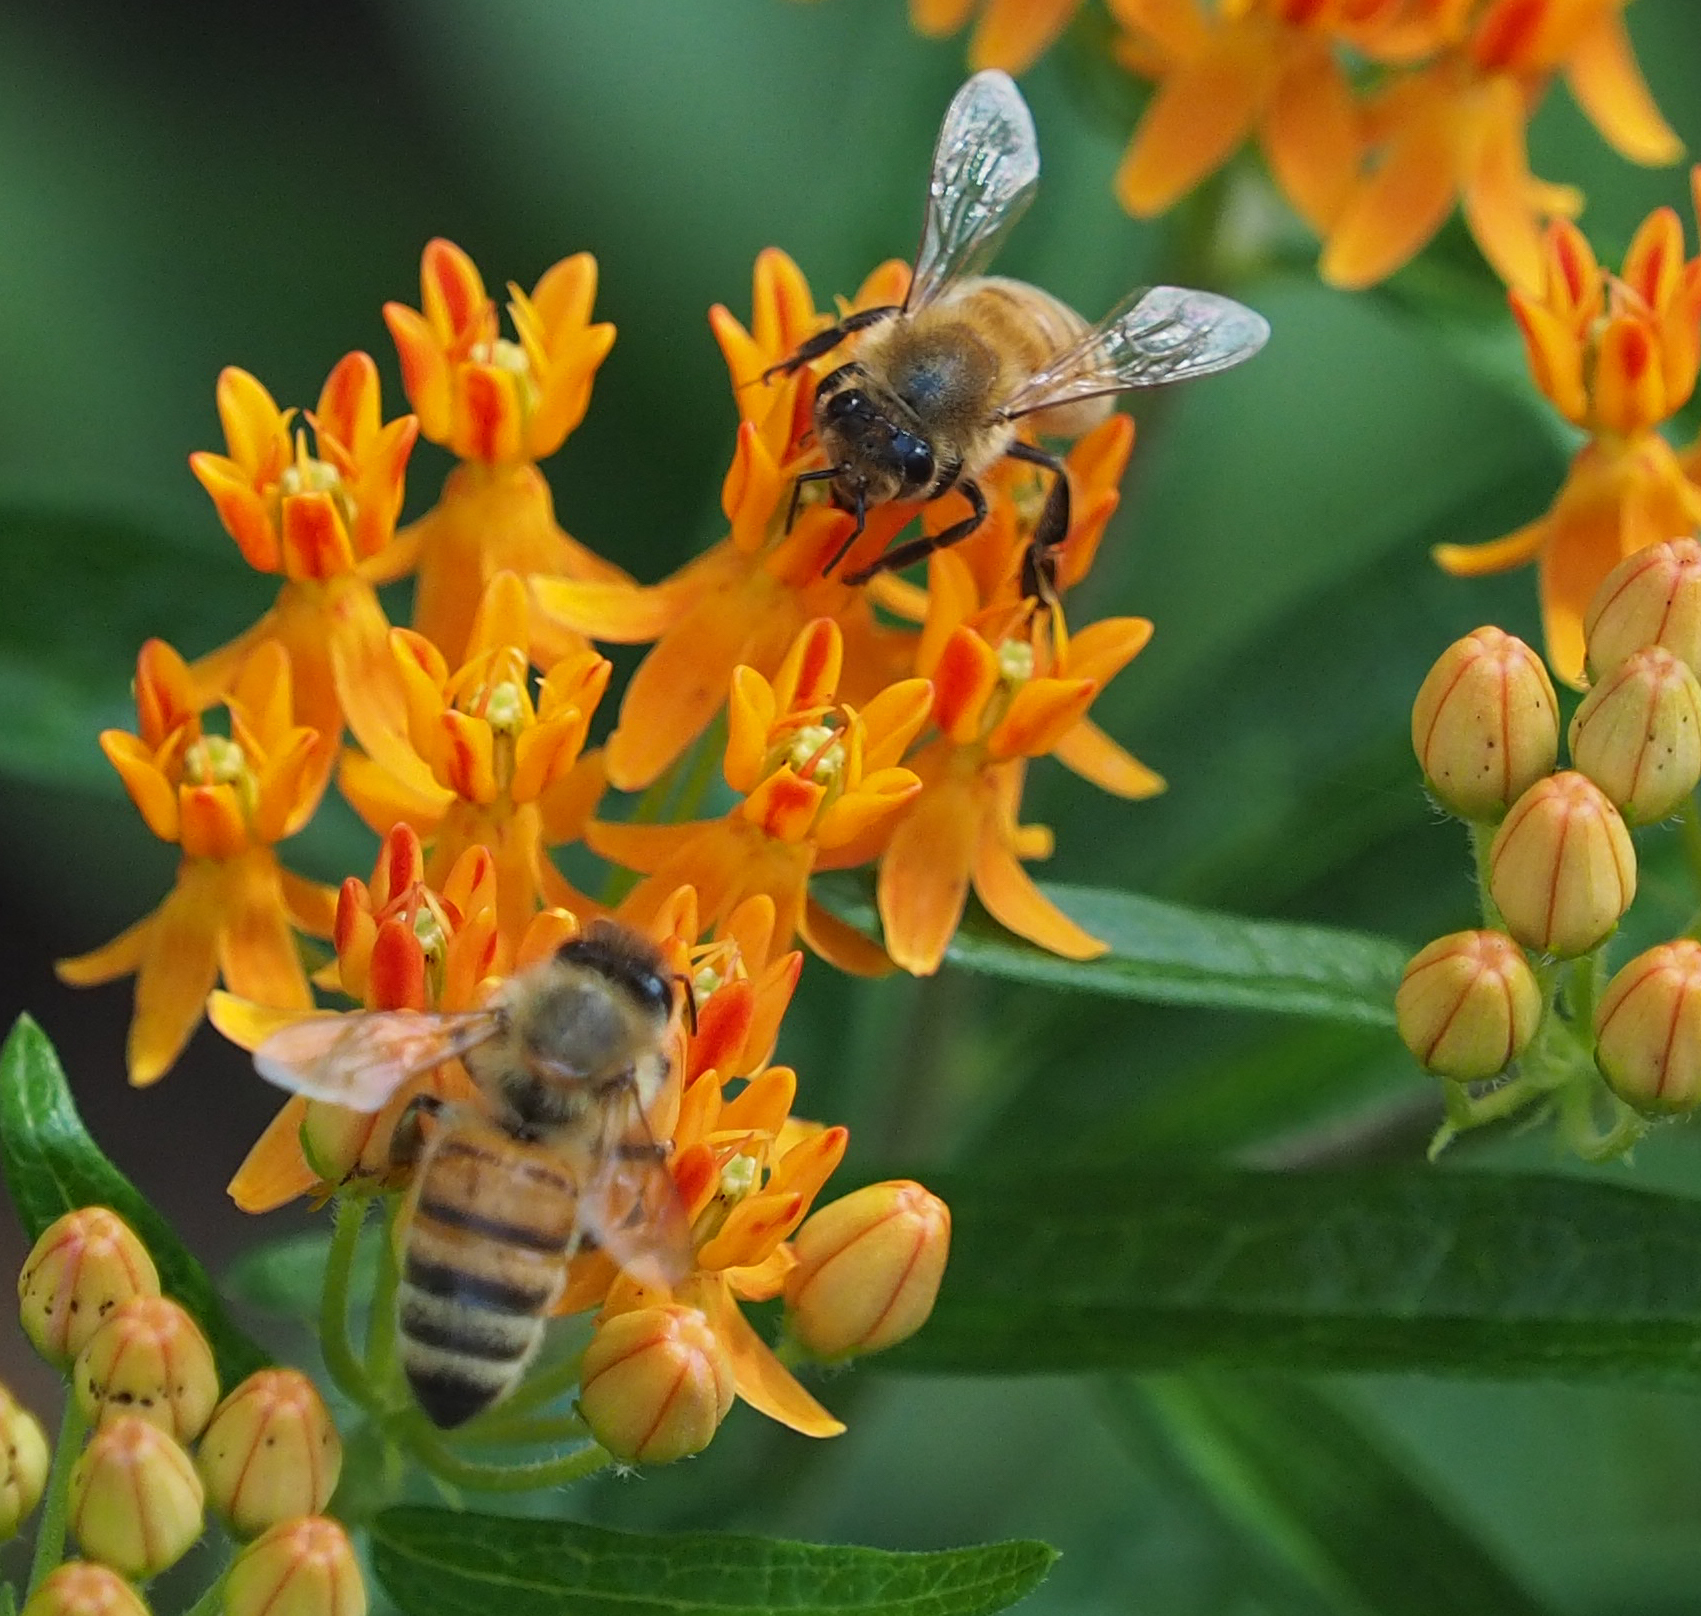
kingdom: Animalia
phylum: Arthropoda
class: Insecta
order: Hymenoptera
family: Apidae
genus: Apis
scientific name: Apis mellifera
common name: Honey bee
